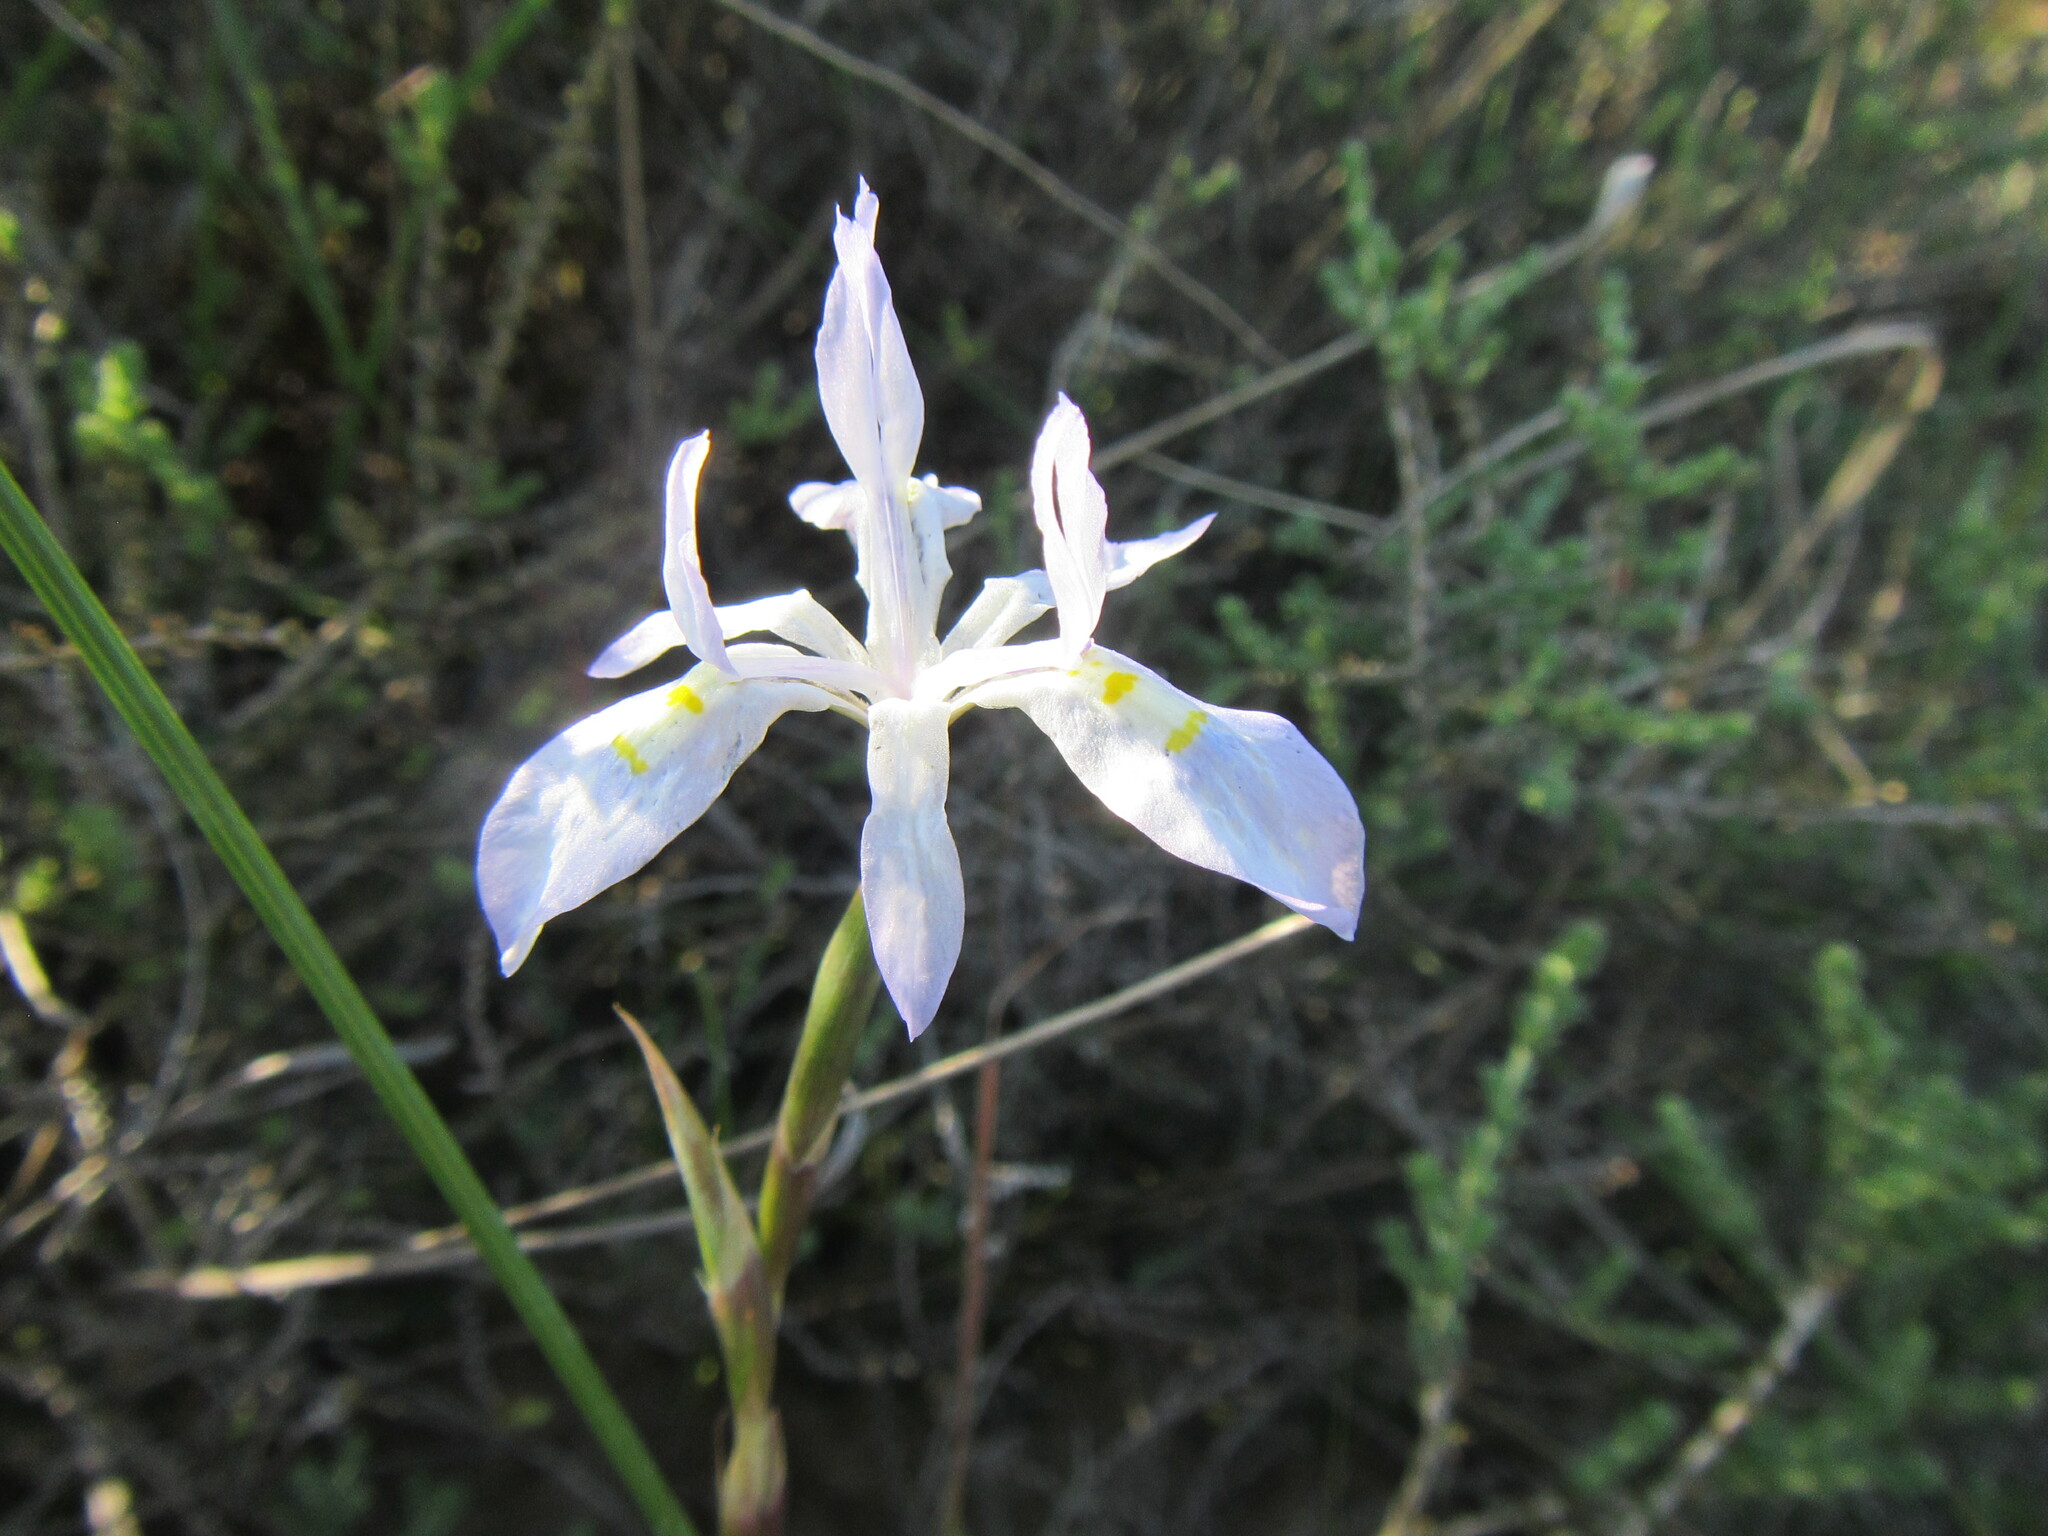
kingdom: Plantae
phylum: Tracheophyta
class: Liliopsida
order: Asparagales
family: Iridaceae
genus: Moraea
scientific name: Moraea fugax
